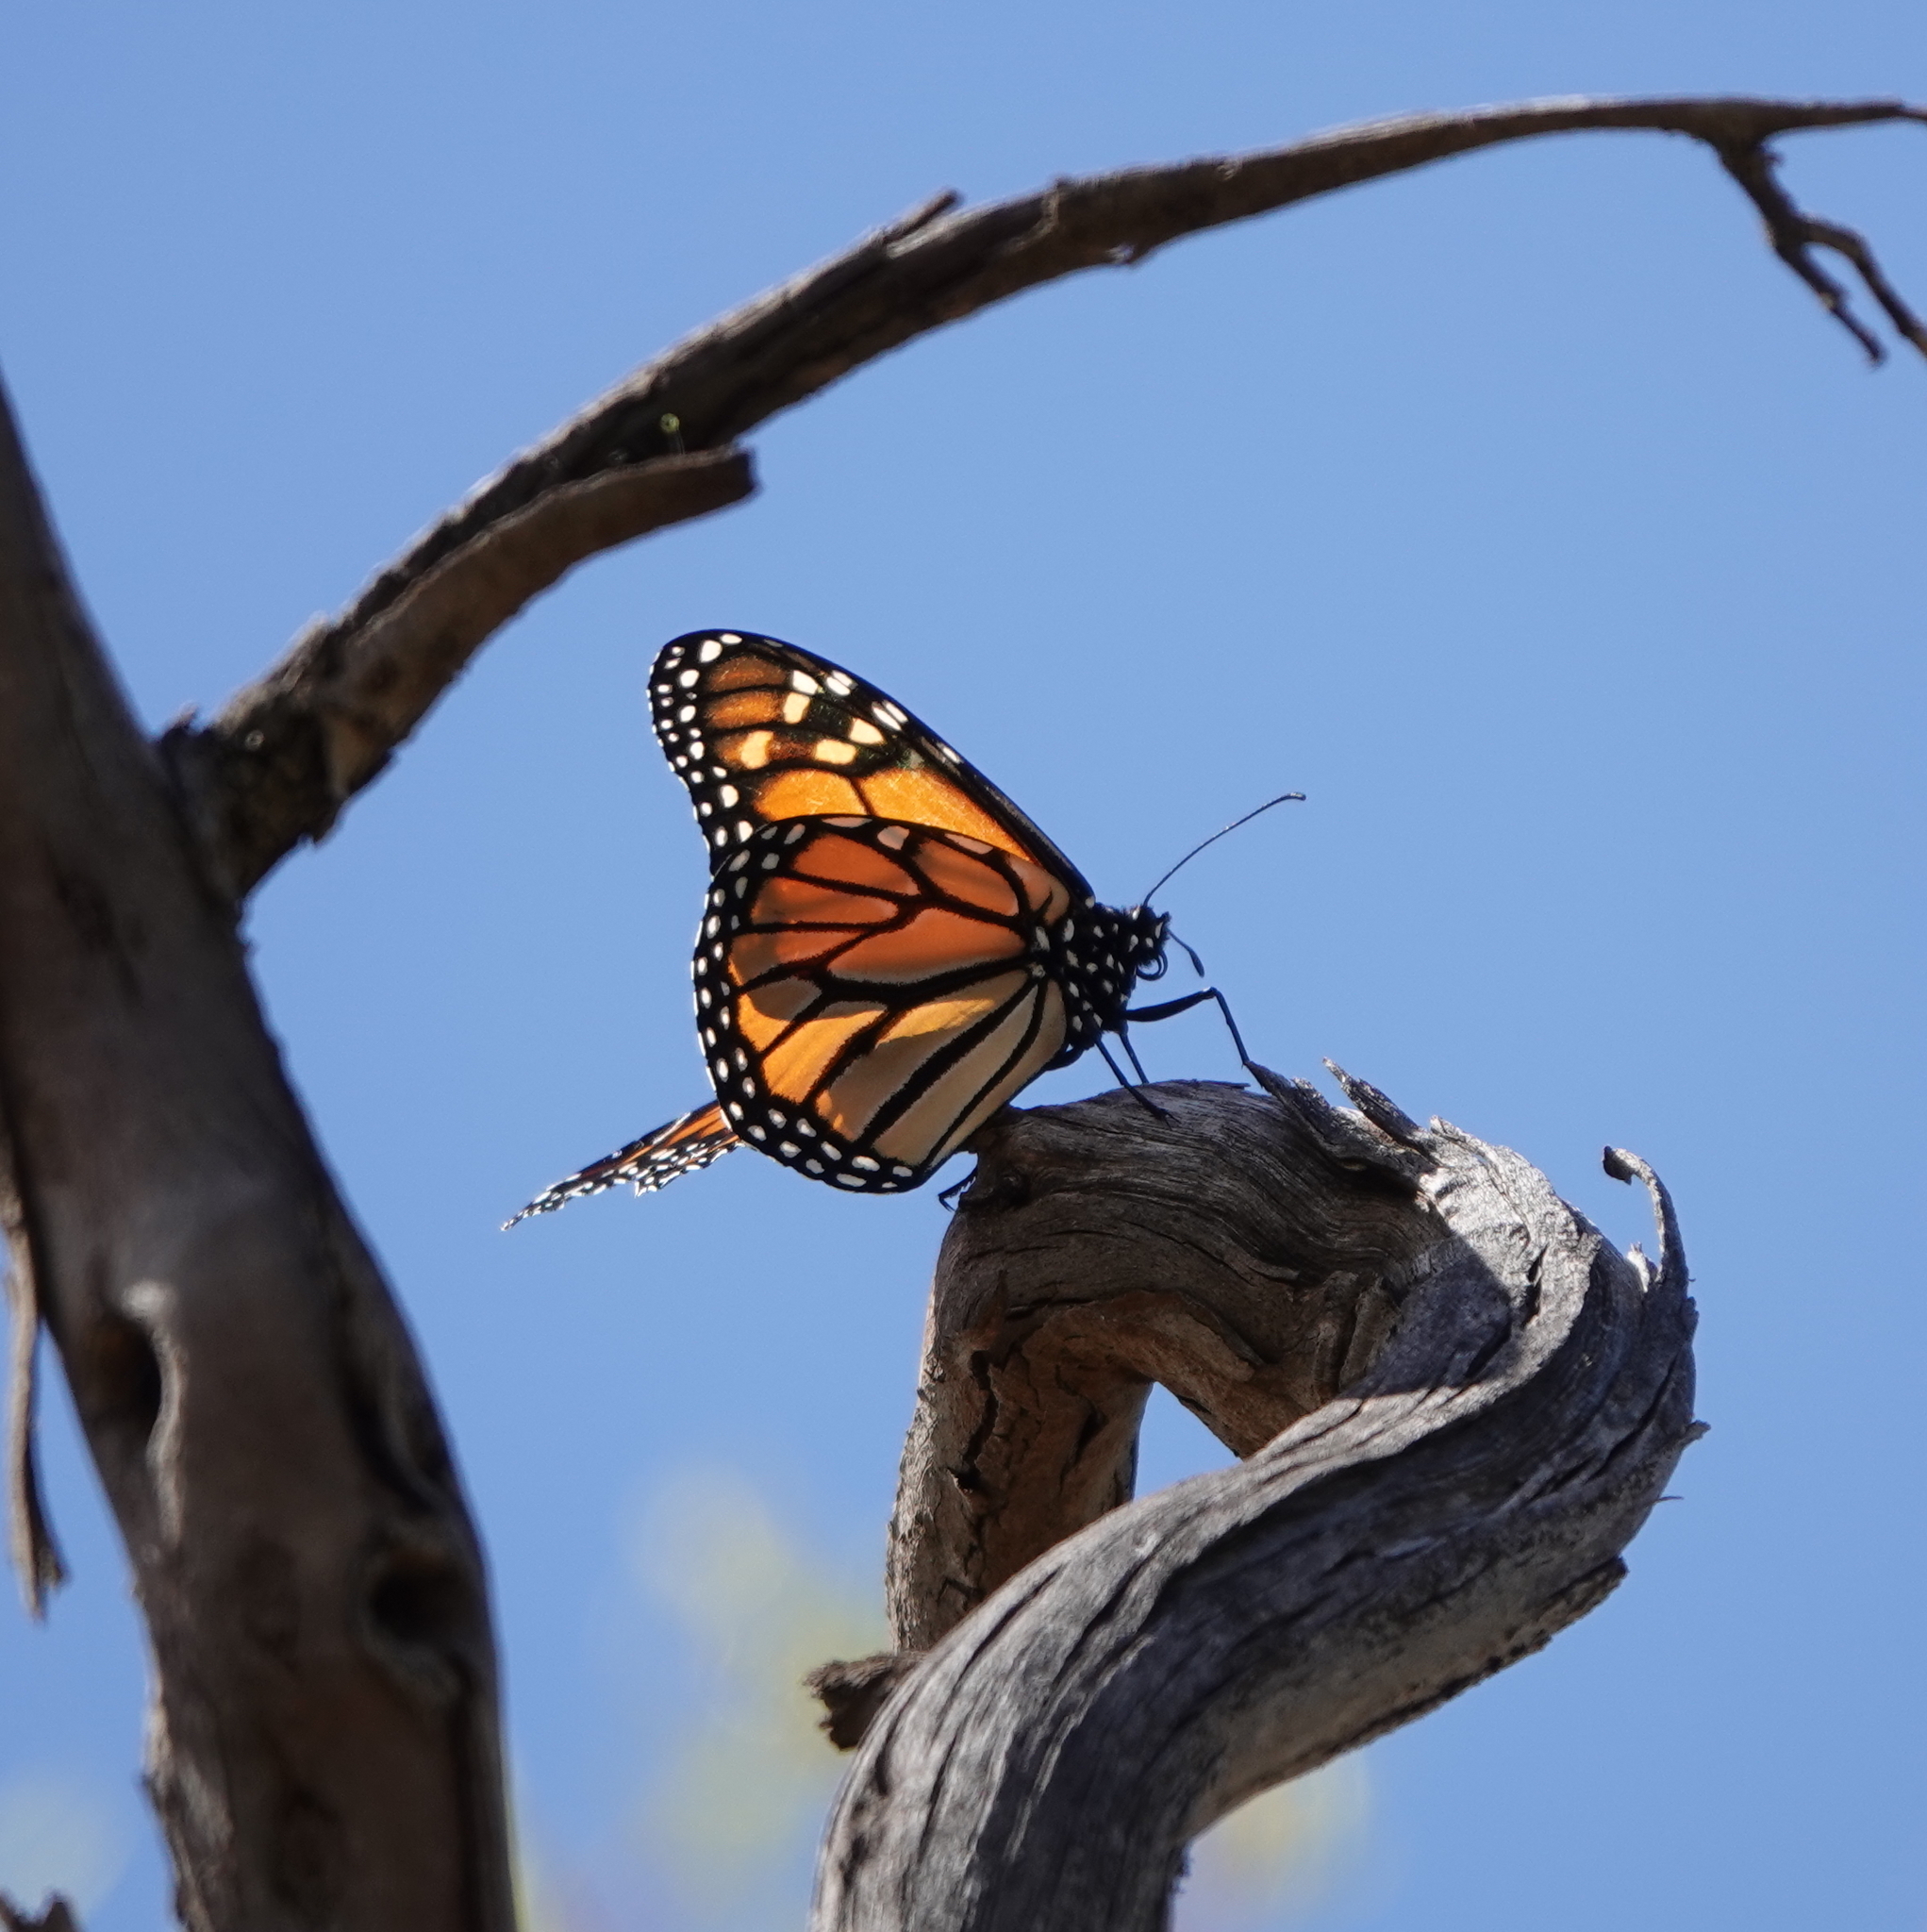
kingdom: Animalia
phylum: Arthropoda
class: Insecta
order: Lepidoptera
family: Nymphalidae
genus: Danaus
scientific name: Danaus plexippus
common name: Monarch
